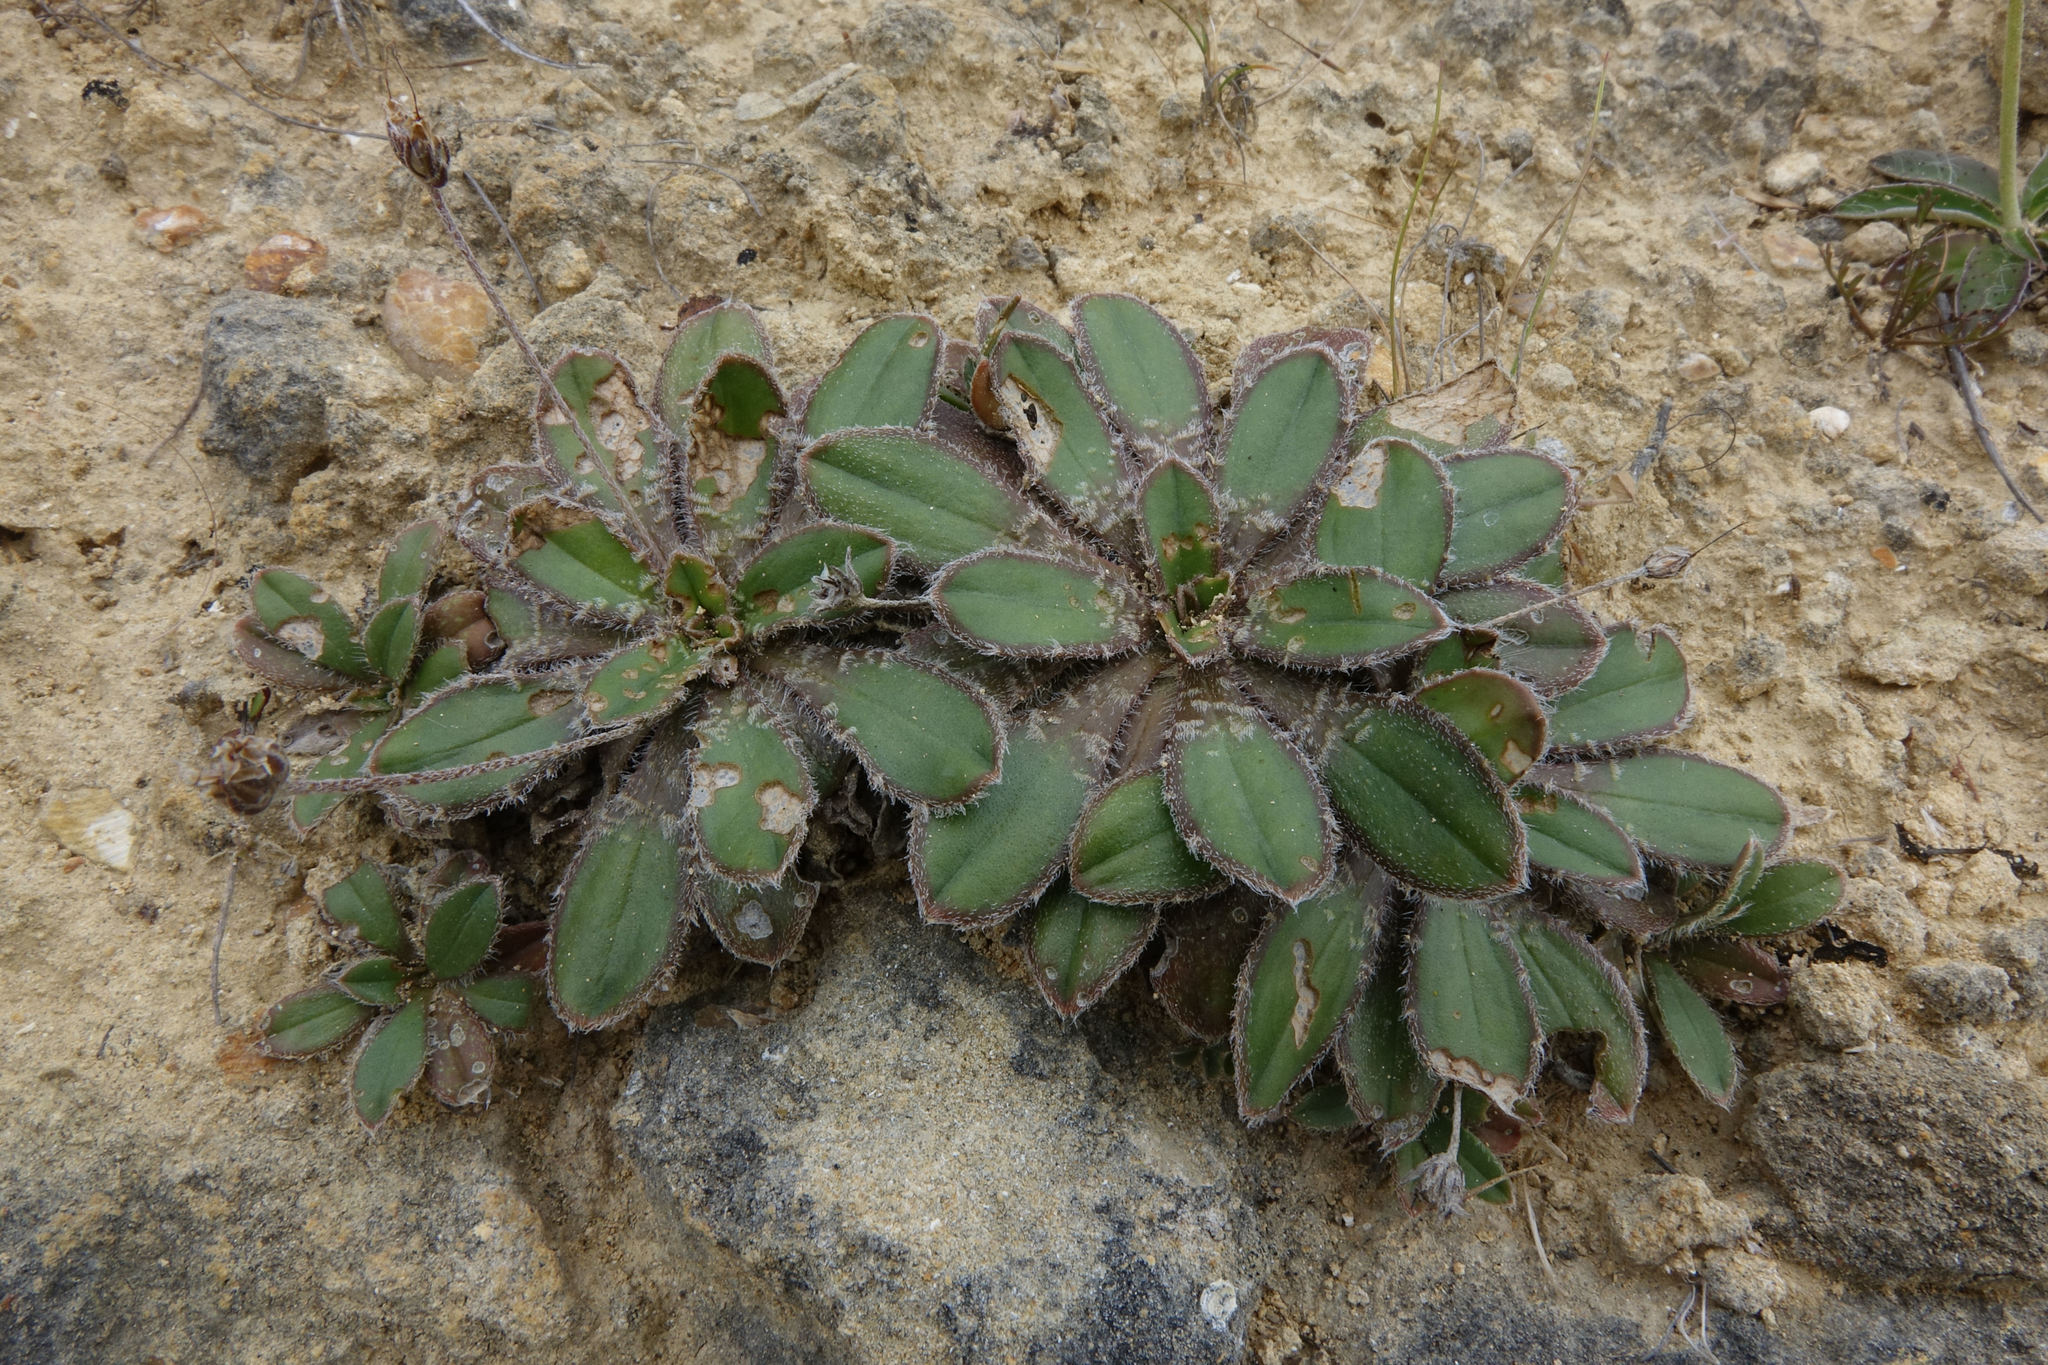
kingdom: Plantae
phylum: Tracheophyta
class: Magnoliopsida
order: Lamiales
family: Plantaginaceae
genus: Plantago
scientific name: Plantago spathulata
